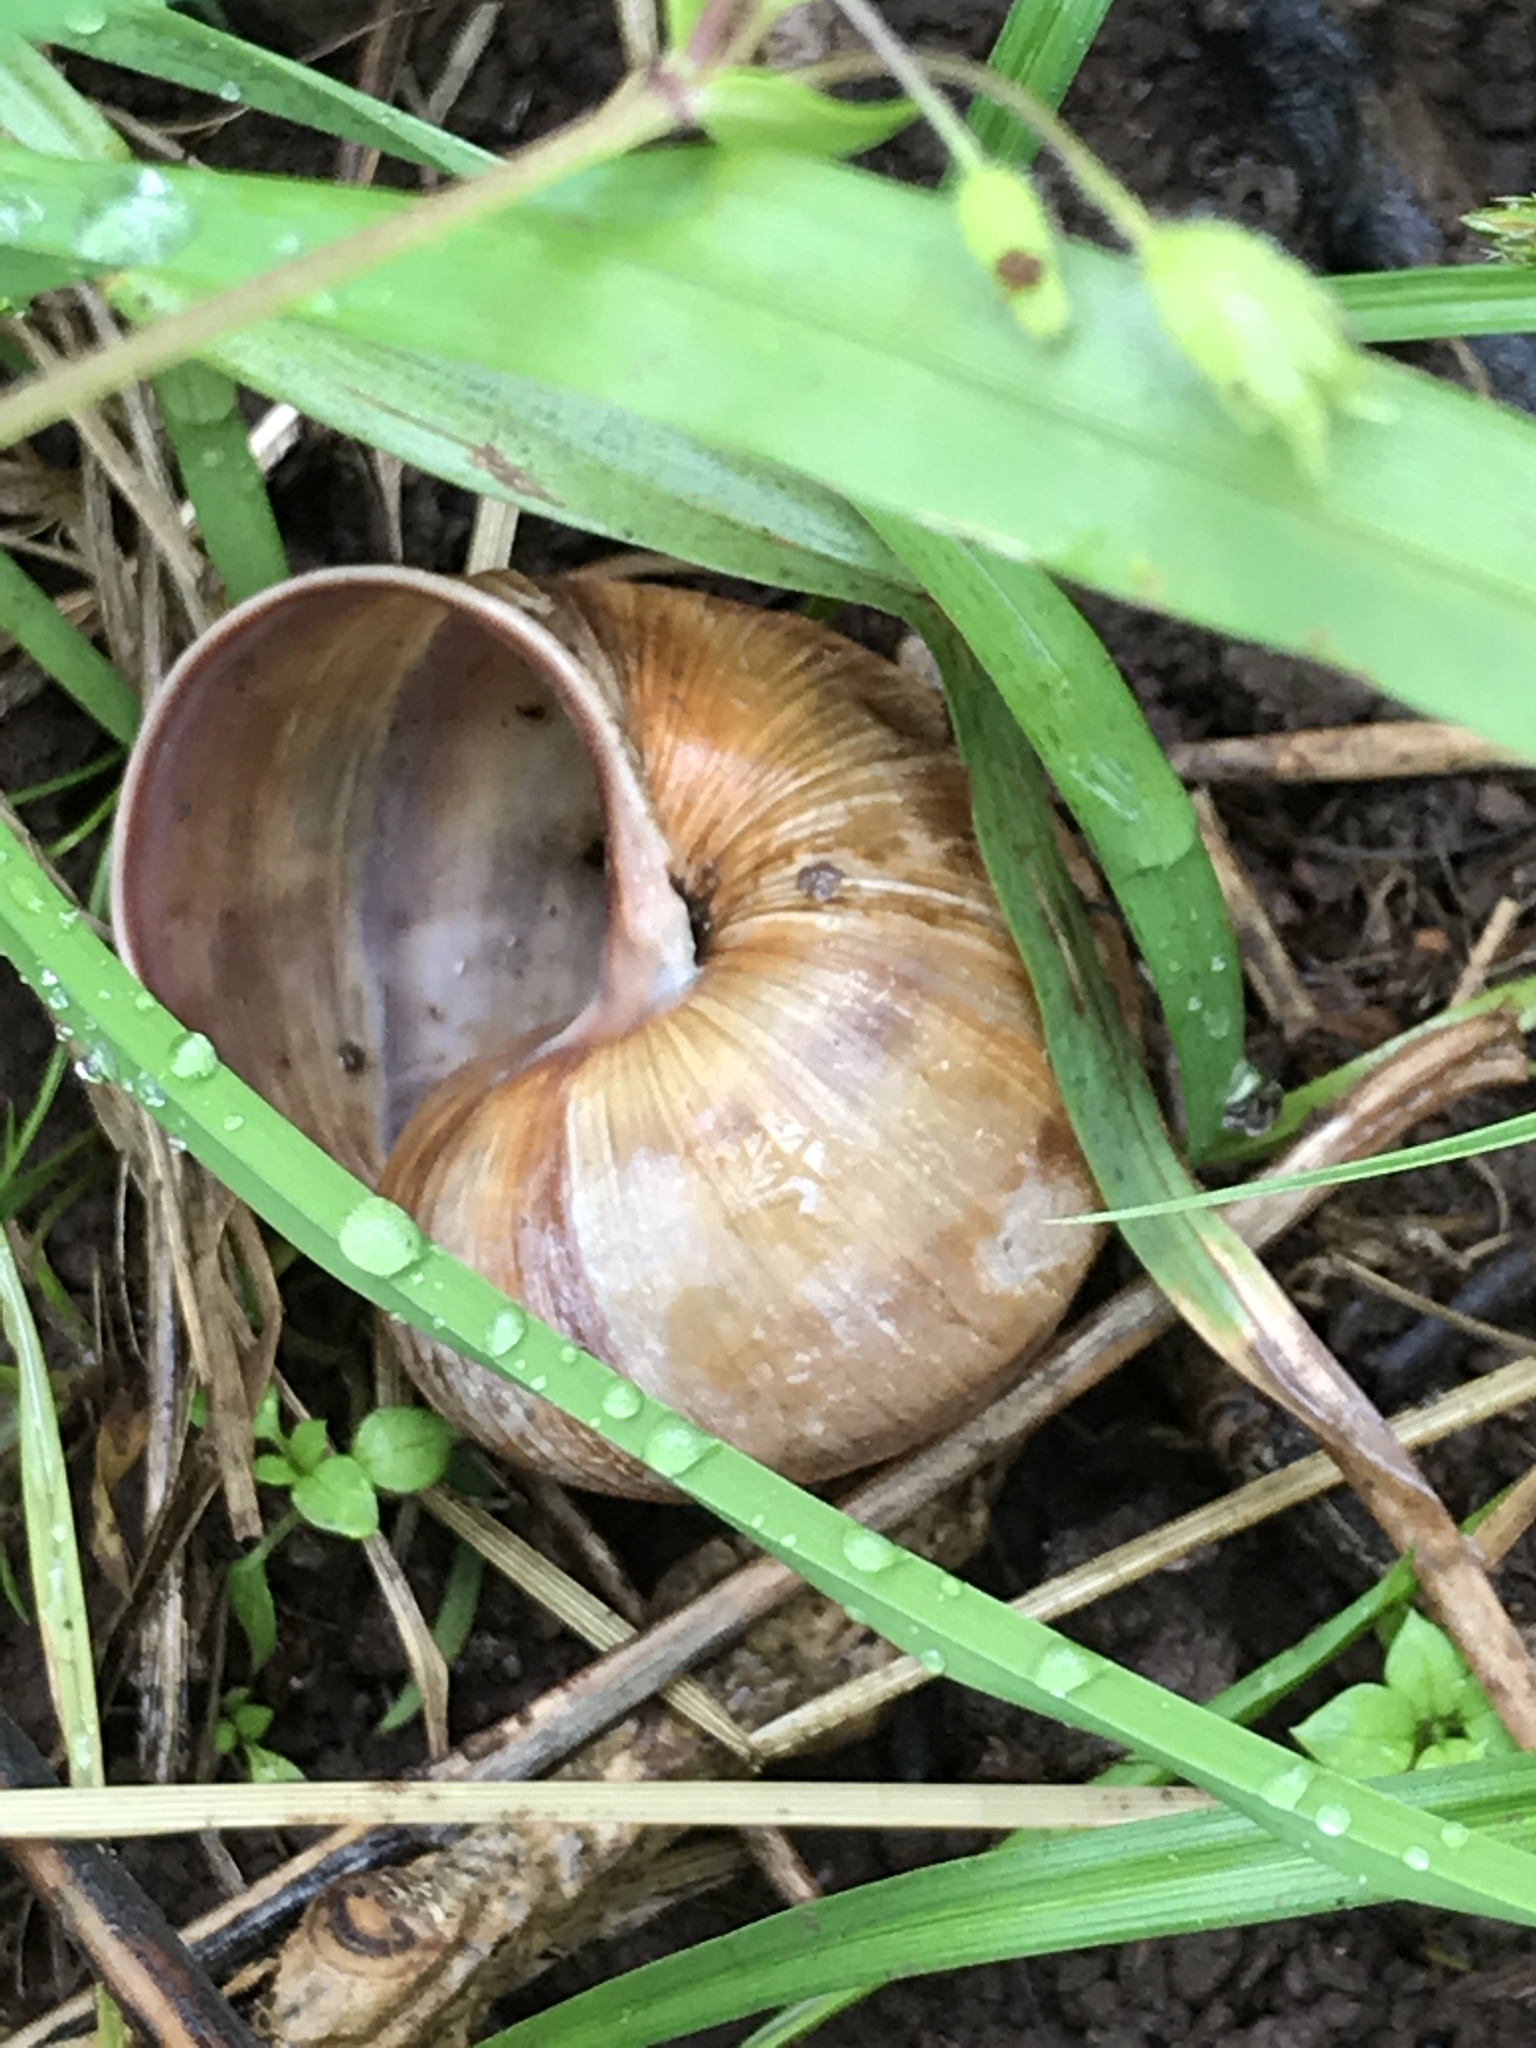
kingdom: Animalia
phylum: Mollusca
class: Gastropoda
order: Stylommatophora
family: Helicidae
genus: Helix
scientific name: Helix pomatia
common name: Roman snail
